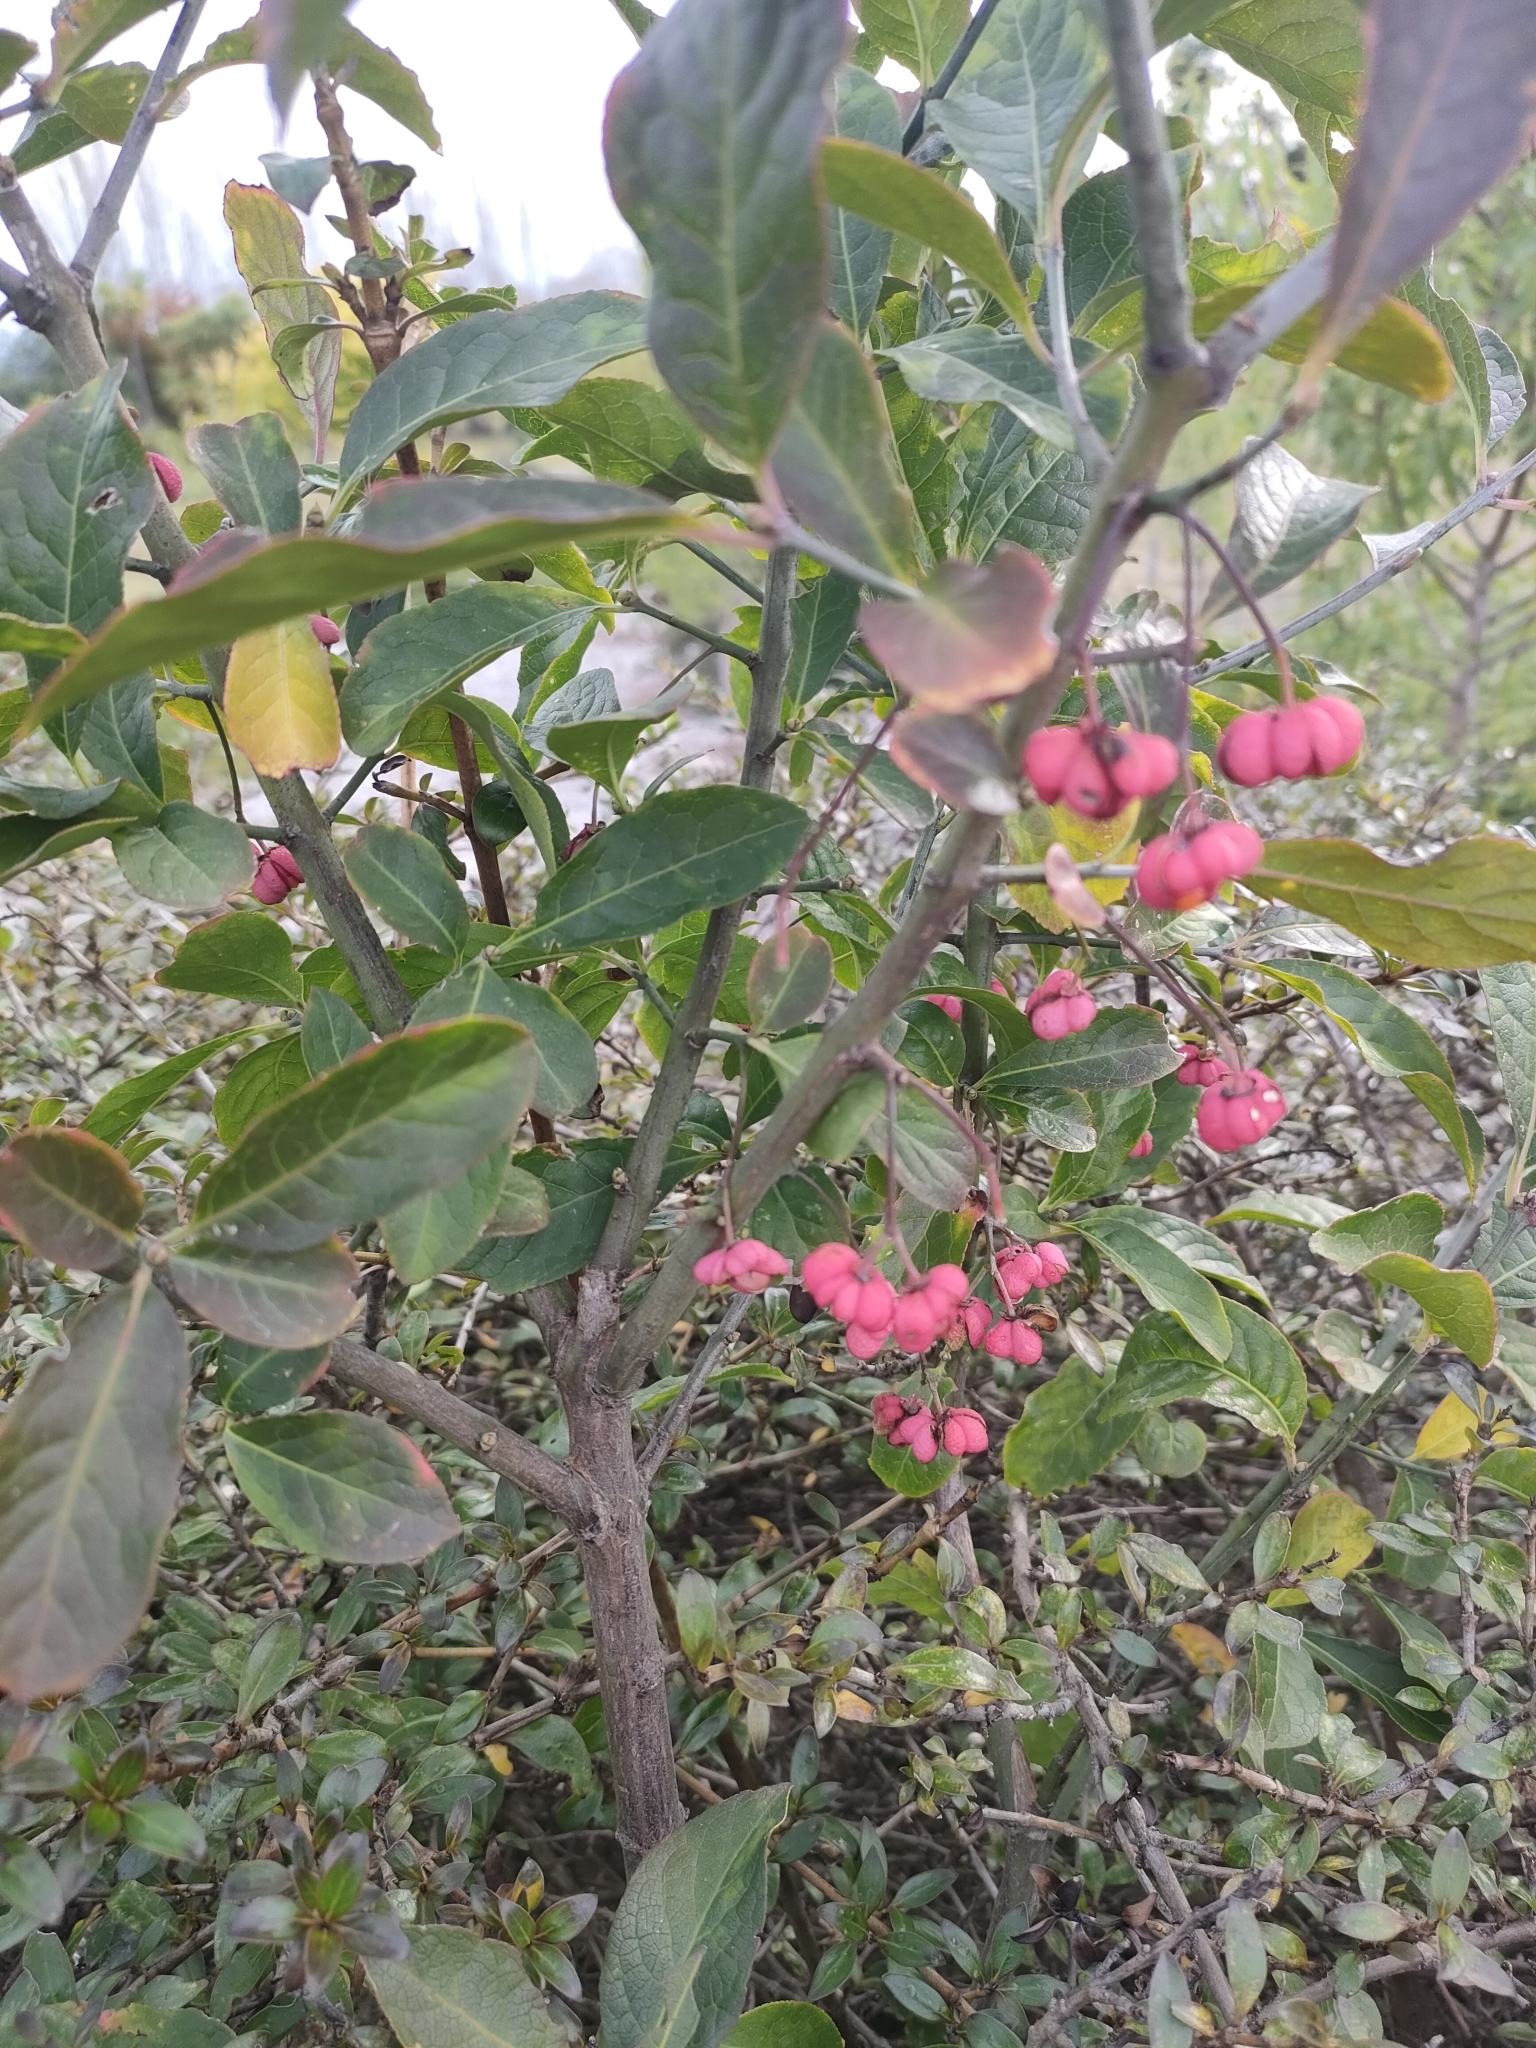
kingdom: Plantae
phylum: Tracheophyta
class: Magnoliopsida
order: Celastrales
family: Celastraceae
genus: Euonymus
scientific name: Euonymus europaeus
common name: Spindle
